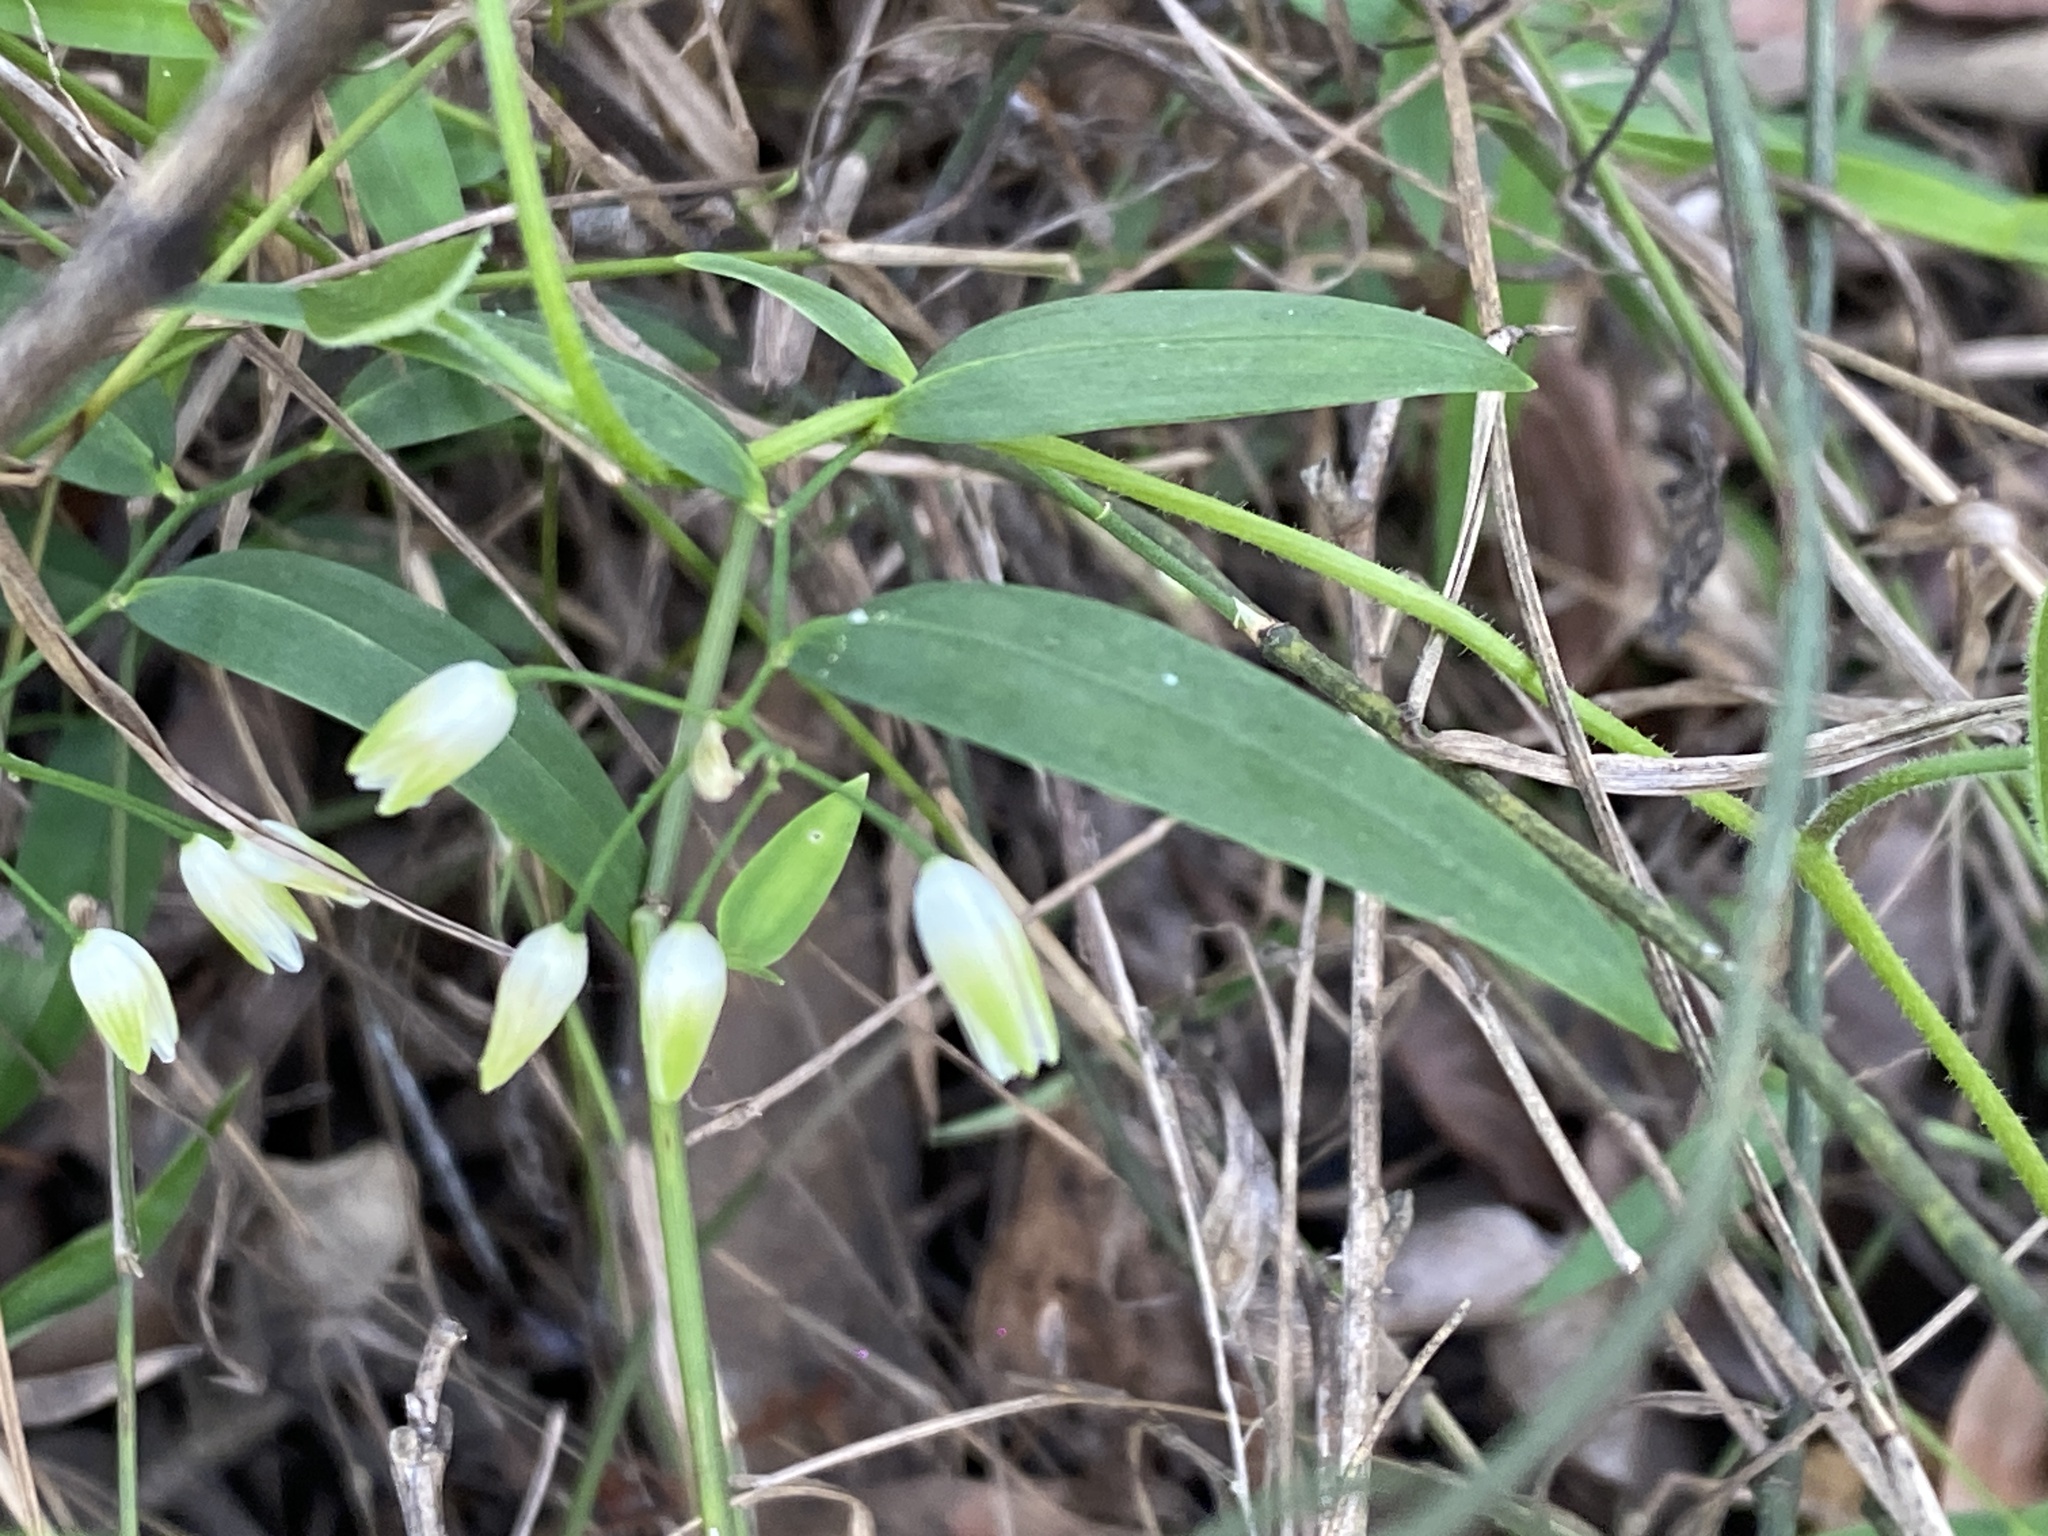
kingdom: Plantae
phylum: Tracheophyta
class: Liliopsida
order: Asparagales
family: Asphodelaceae
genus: Geitonoplesium
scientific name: Geitonoplesium cymosum
